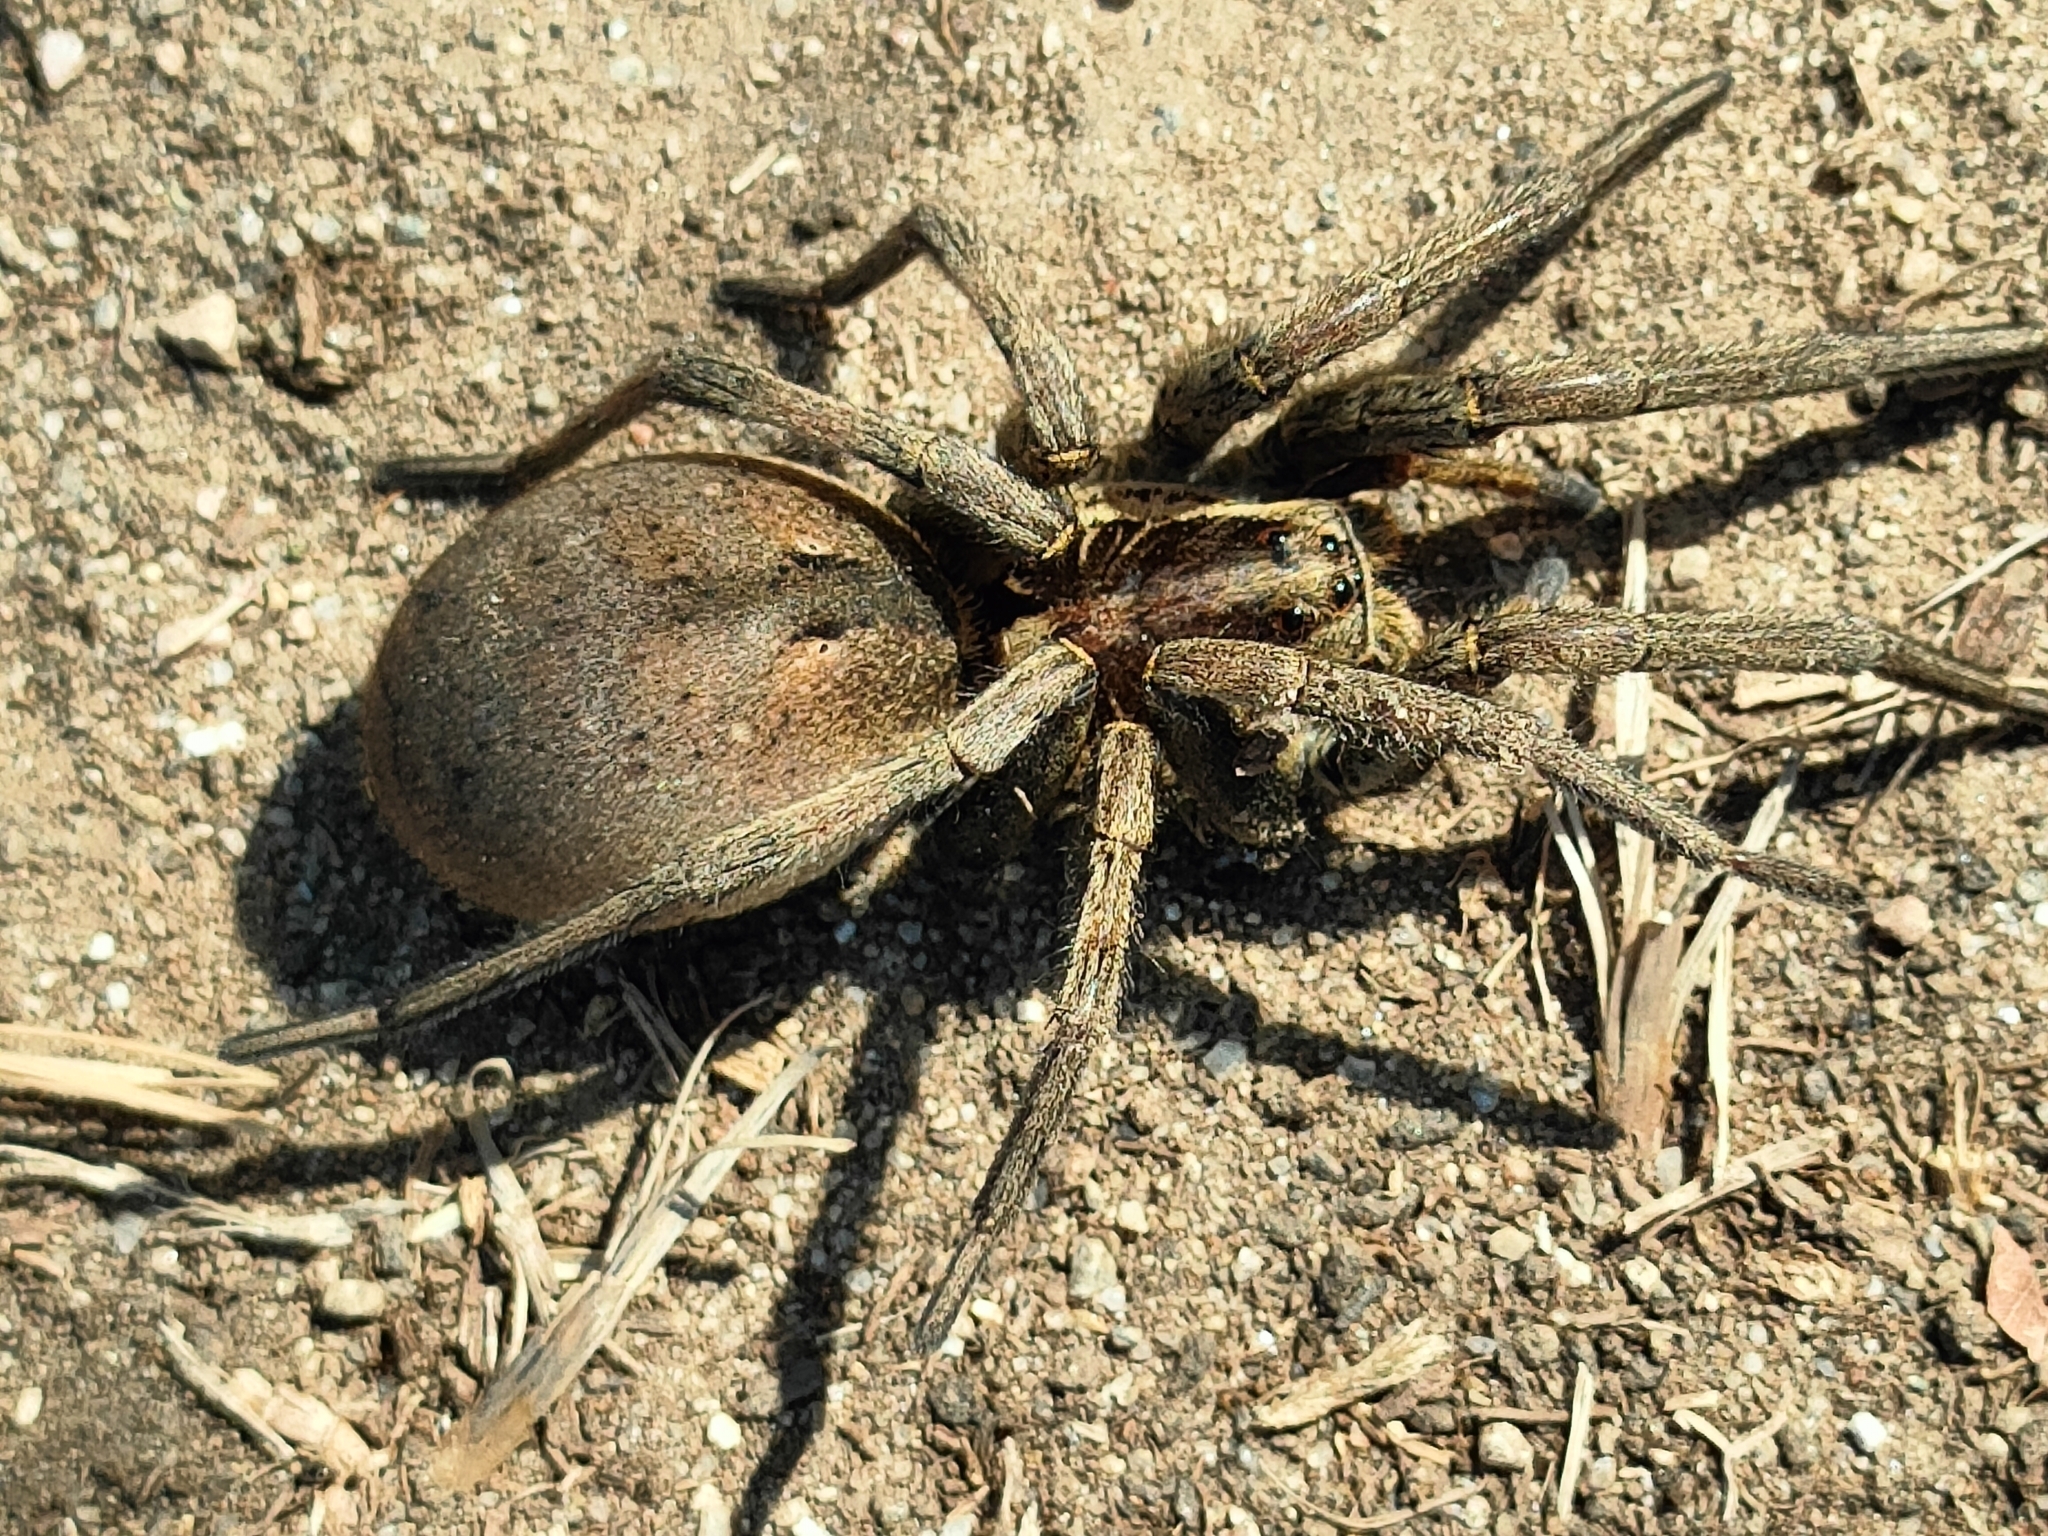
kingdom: Animalia
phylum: Arthropoda
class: Arachnida
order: Araneae
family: Lycosidae
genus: Hogna
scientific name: Hogna radiata
